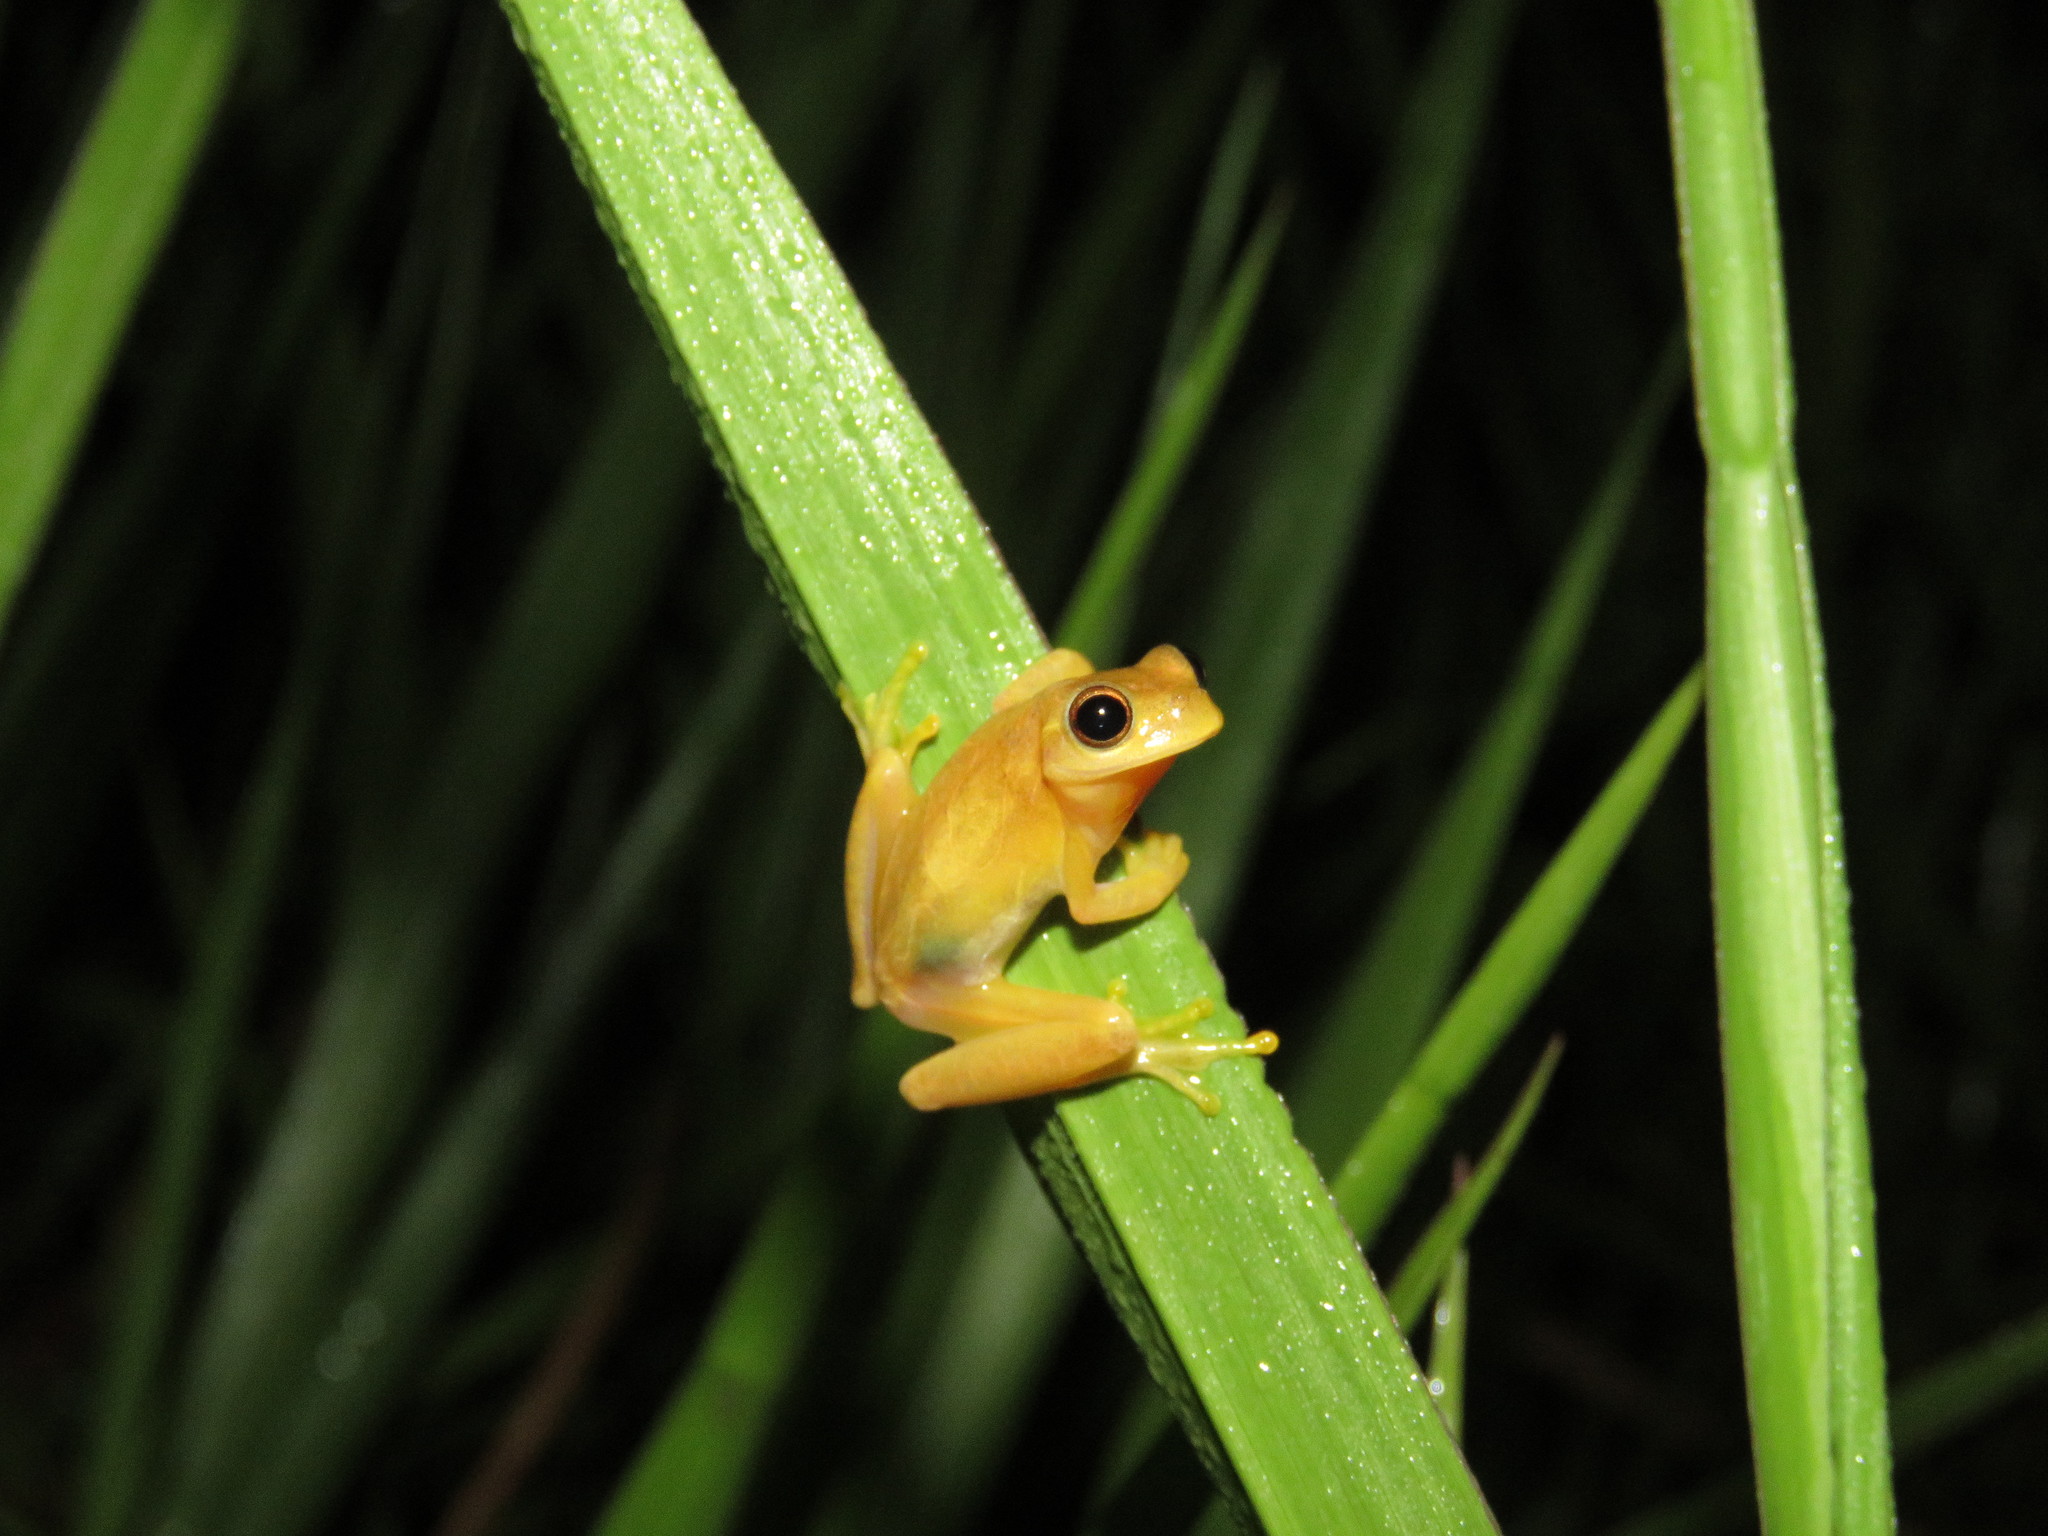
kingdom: Animalia
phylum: Chordata
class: Amphibia
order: Anura
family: Hylidae
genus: Dendropsophus
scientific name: Dendropsophus minutus
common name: Lesser treefrog
